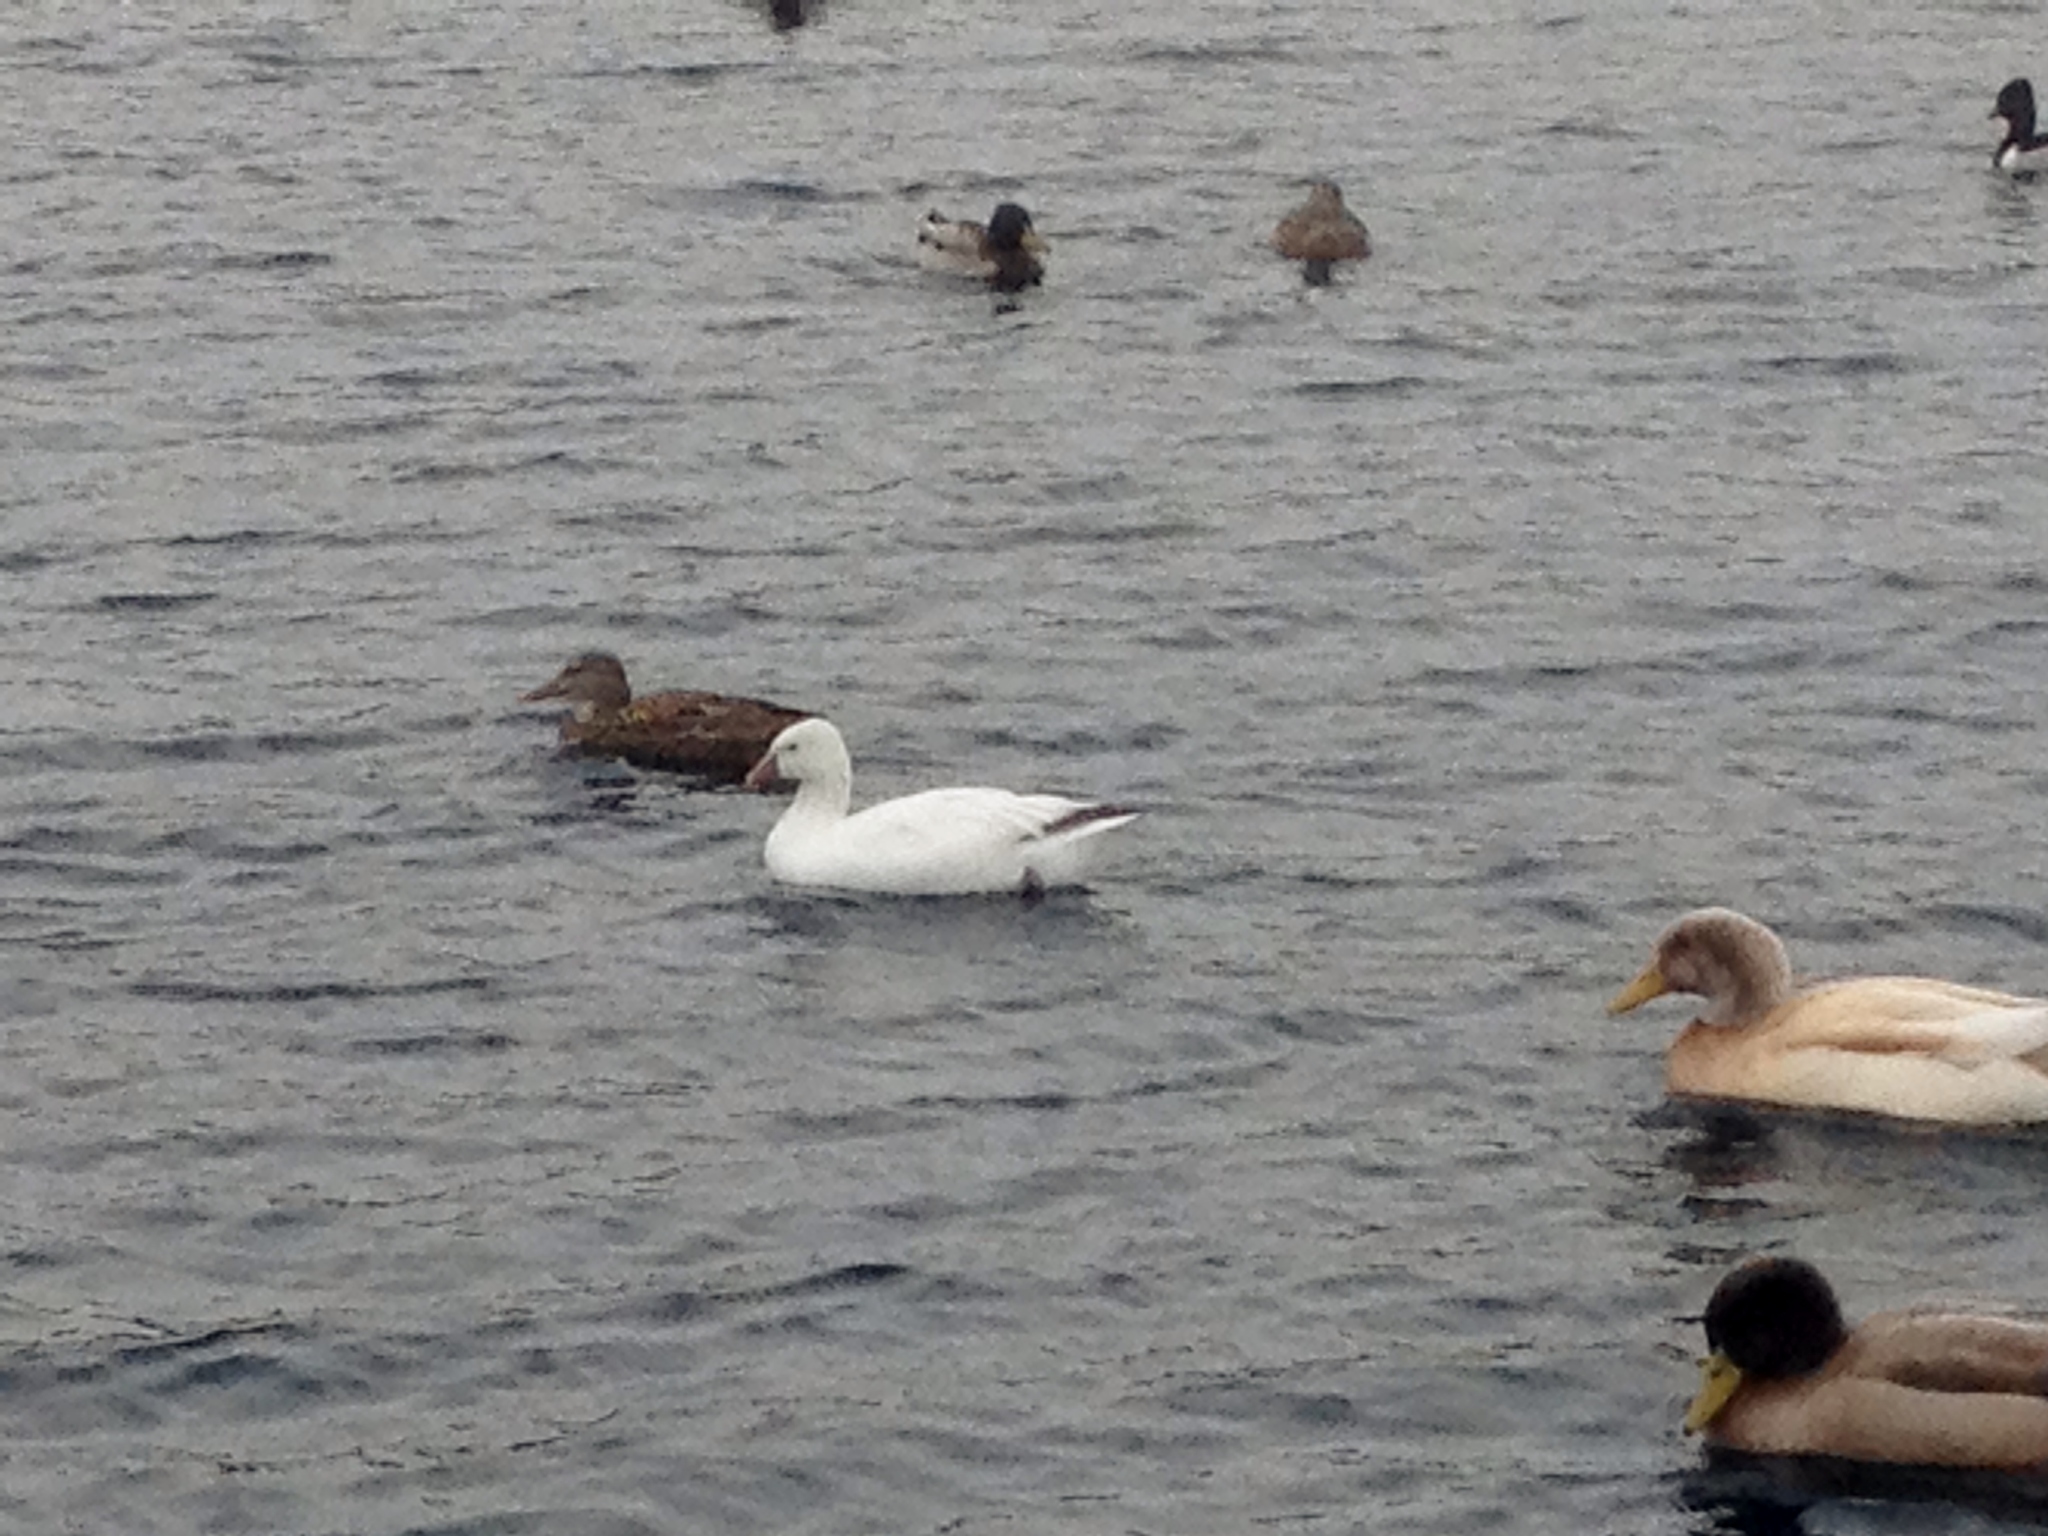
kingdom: Animalia
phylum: Chordata
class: Aves
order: Anseriformes
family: Anatidae
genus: Anser
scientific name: Anser rossii
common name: Ross's goose
